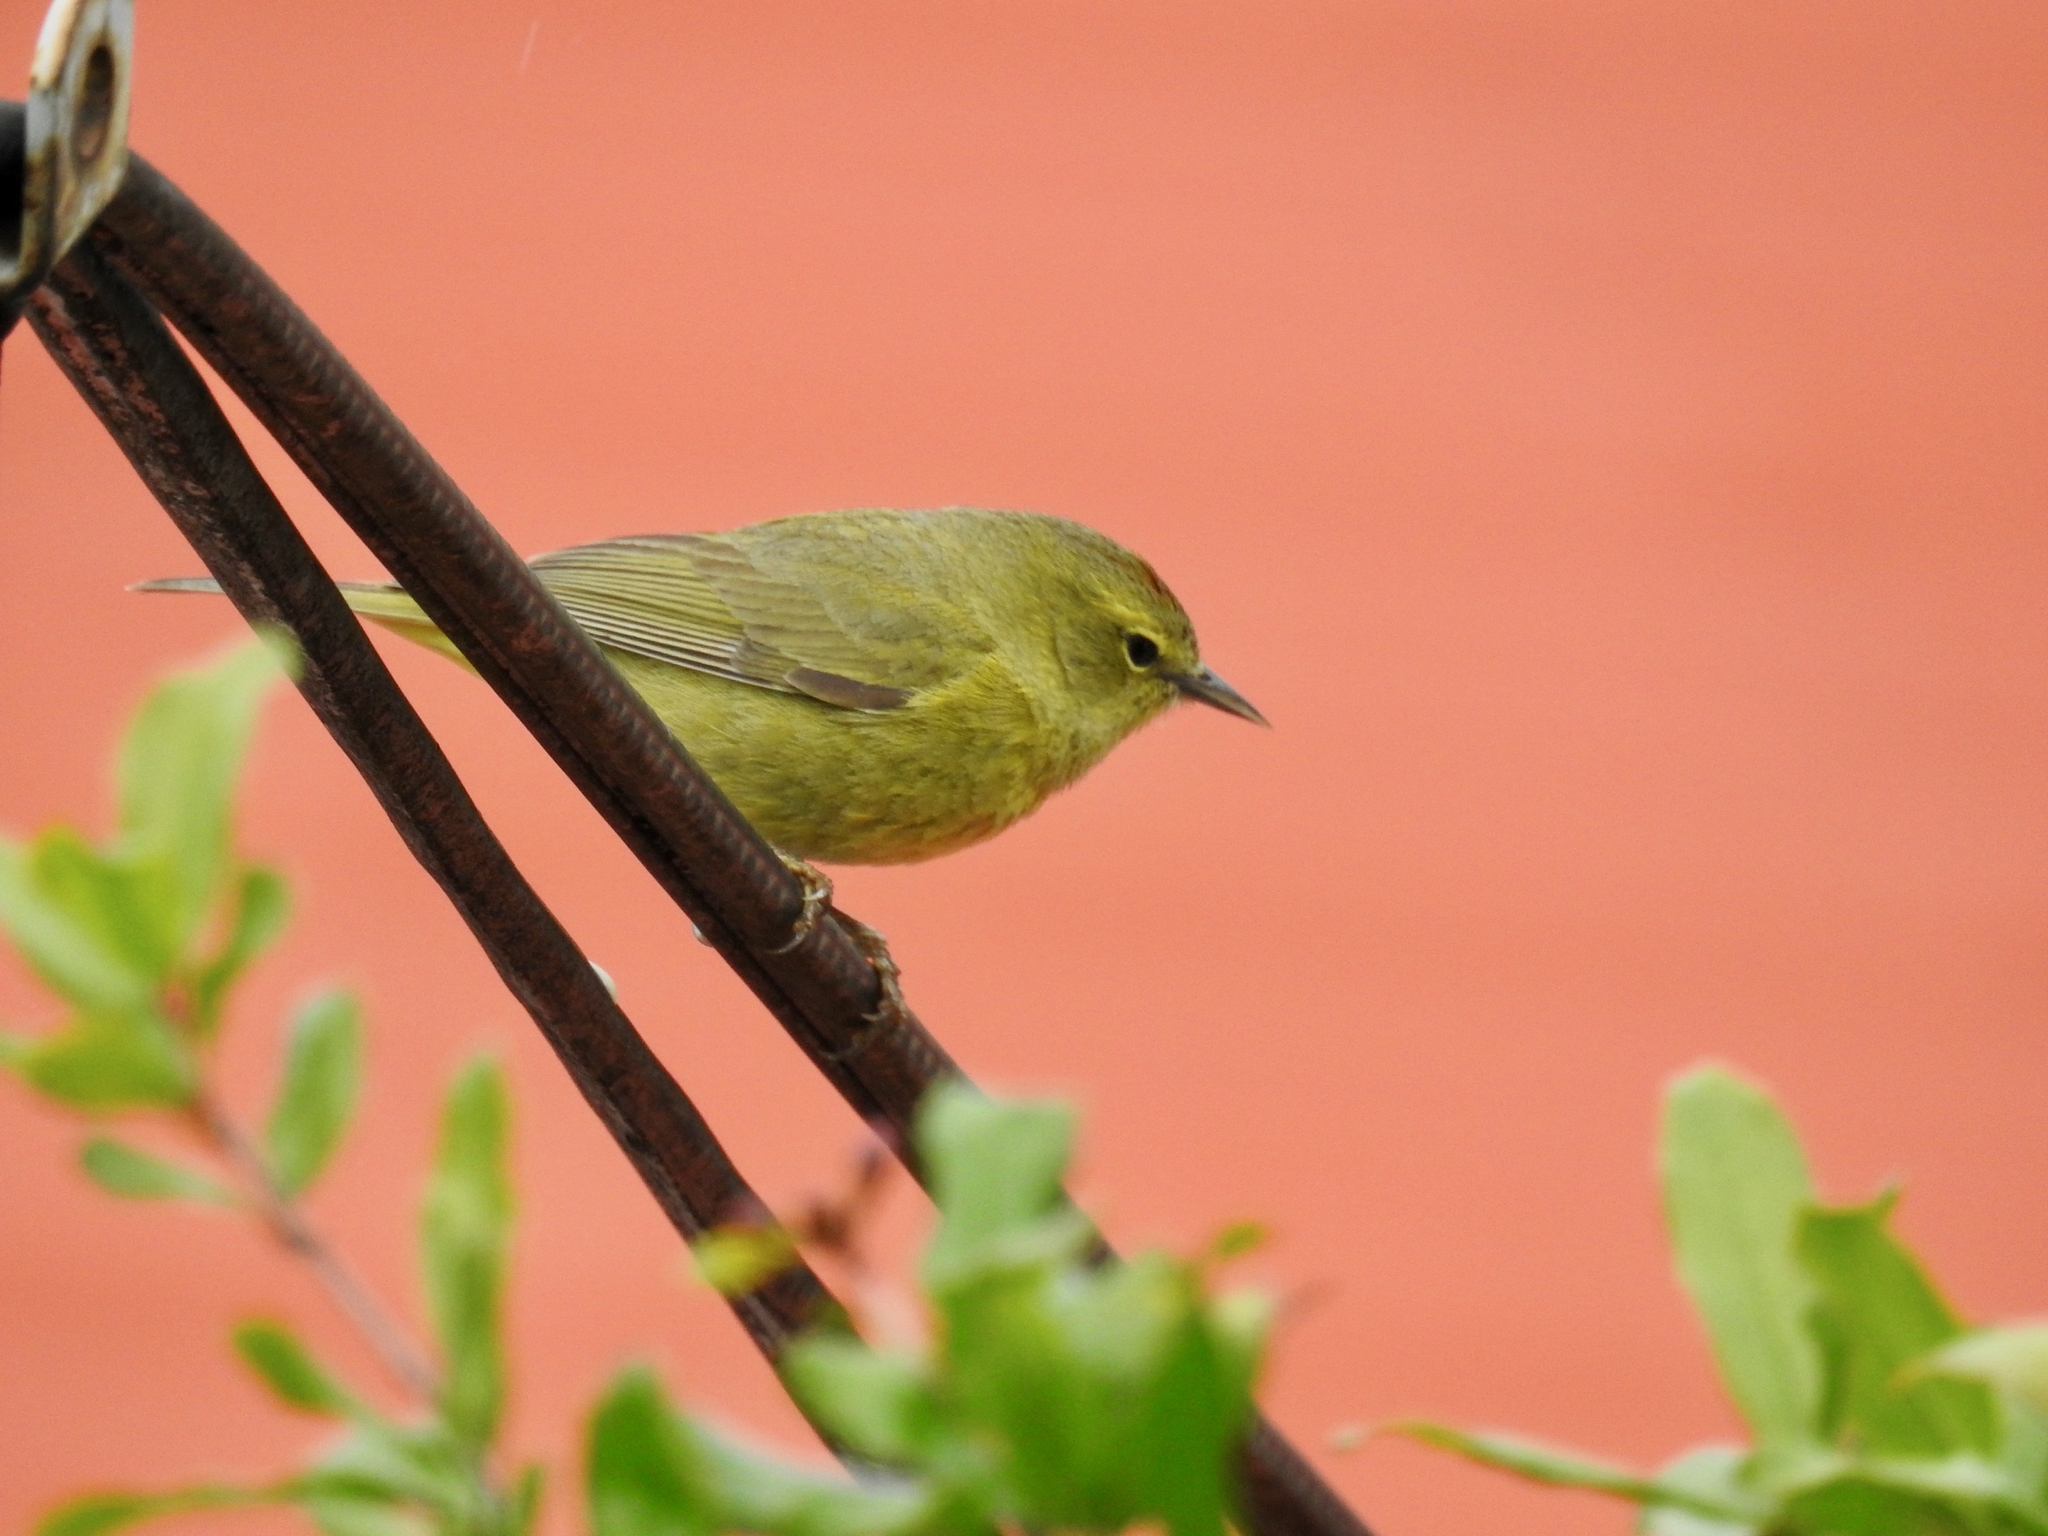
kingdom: Animalia
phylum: Chordata
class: Aves
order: Passeriformes
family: Parulidae
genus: Leiothlypis
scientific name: Leiothlypis celata
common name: Orange-crowned warbler
